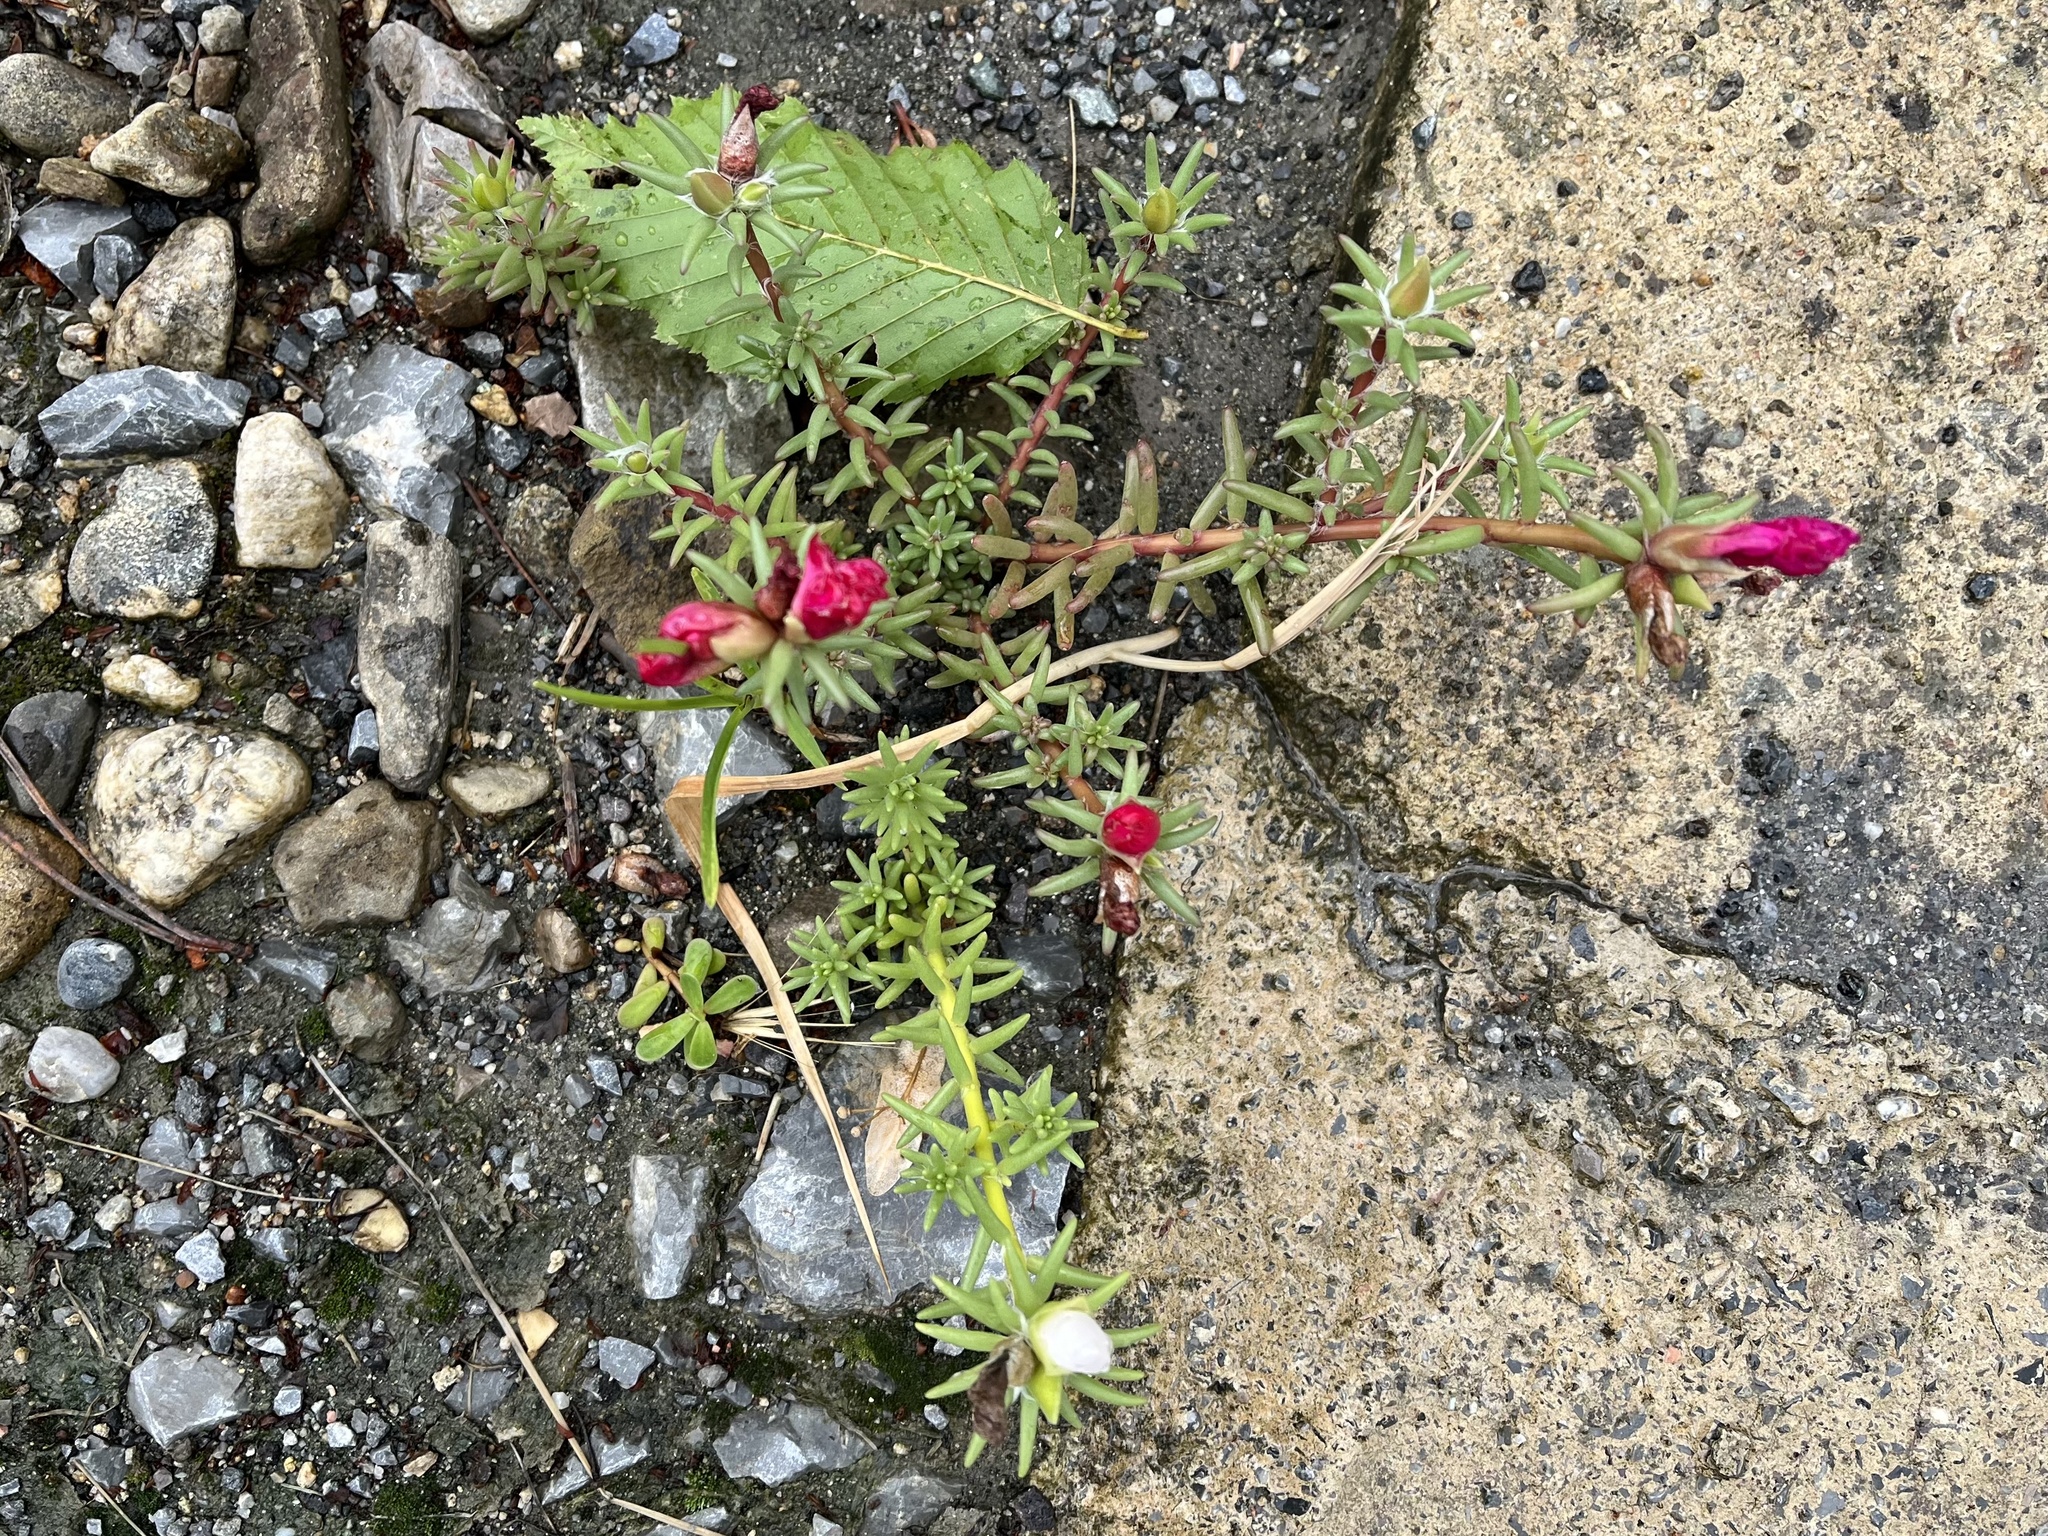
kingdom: Plantae
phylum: Tracheophyta
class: Magnoliopsida
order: Caryophyllales
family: Portulacaceae
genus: Portulaca
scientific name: Portulaca grandiflora
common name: Moss-rose
